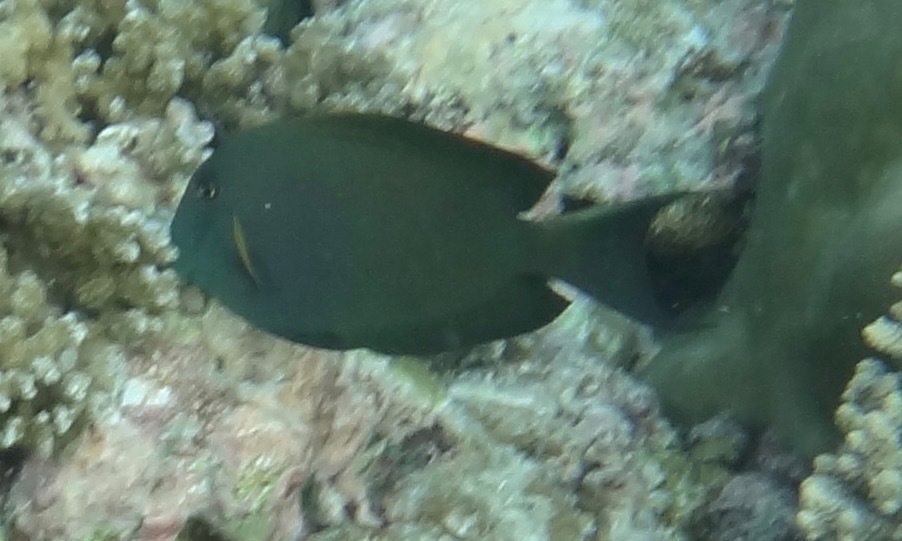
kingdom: Animalia
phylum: Chordata
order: Perciformes
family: Acanthuridae
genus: Ctenochaetus
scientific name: Ctenochaetus striatus
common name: Bristle-toothed surgeonfish
